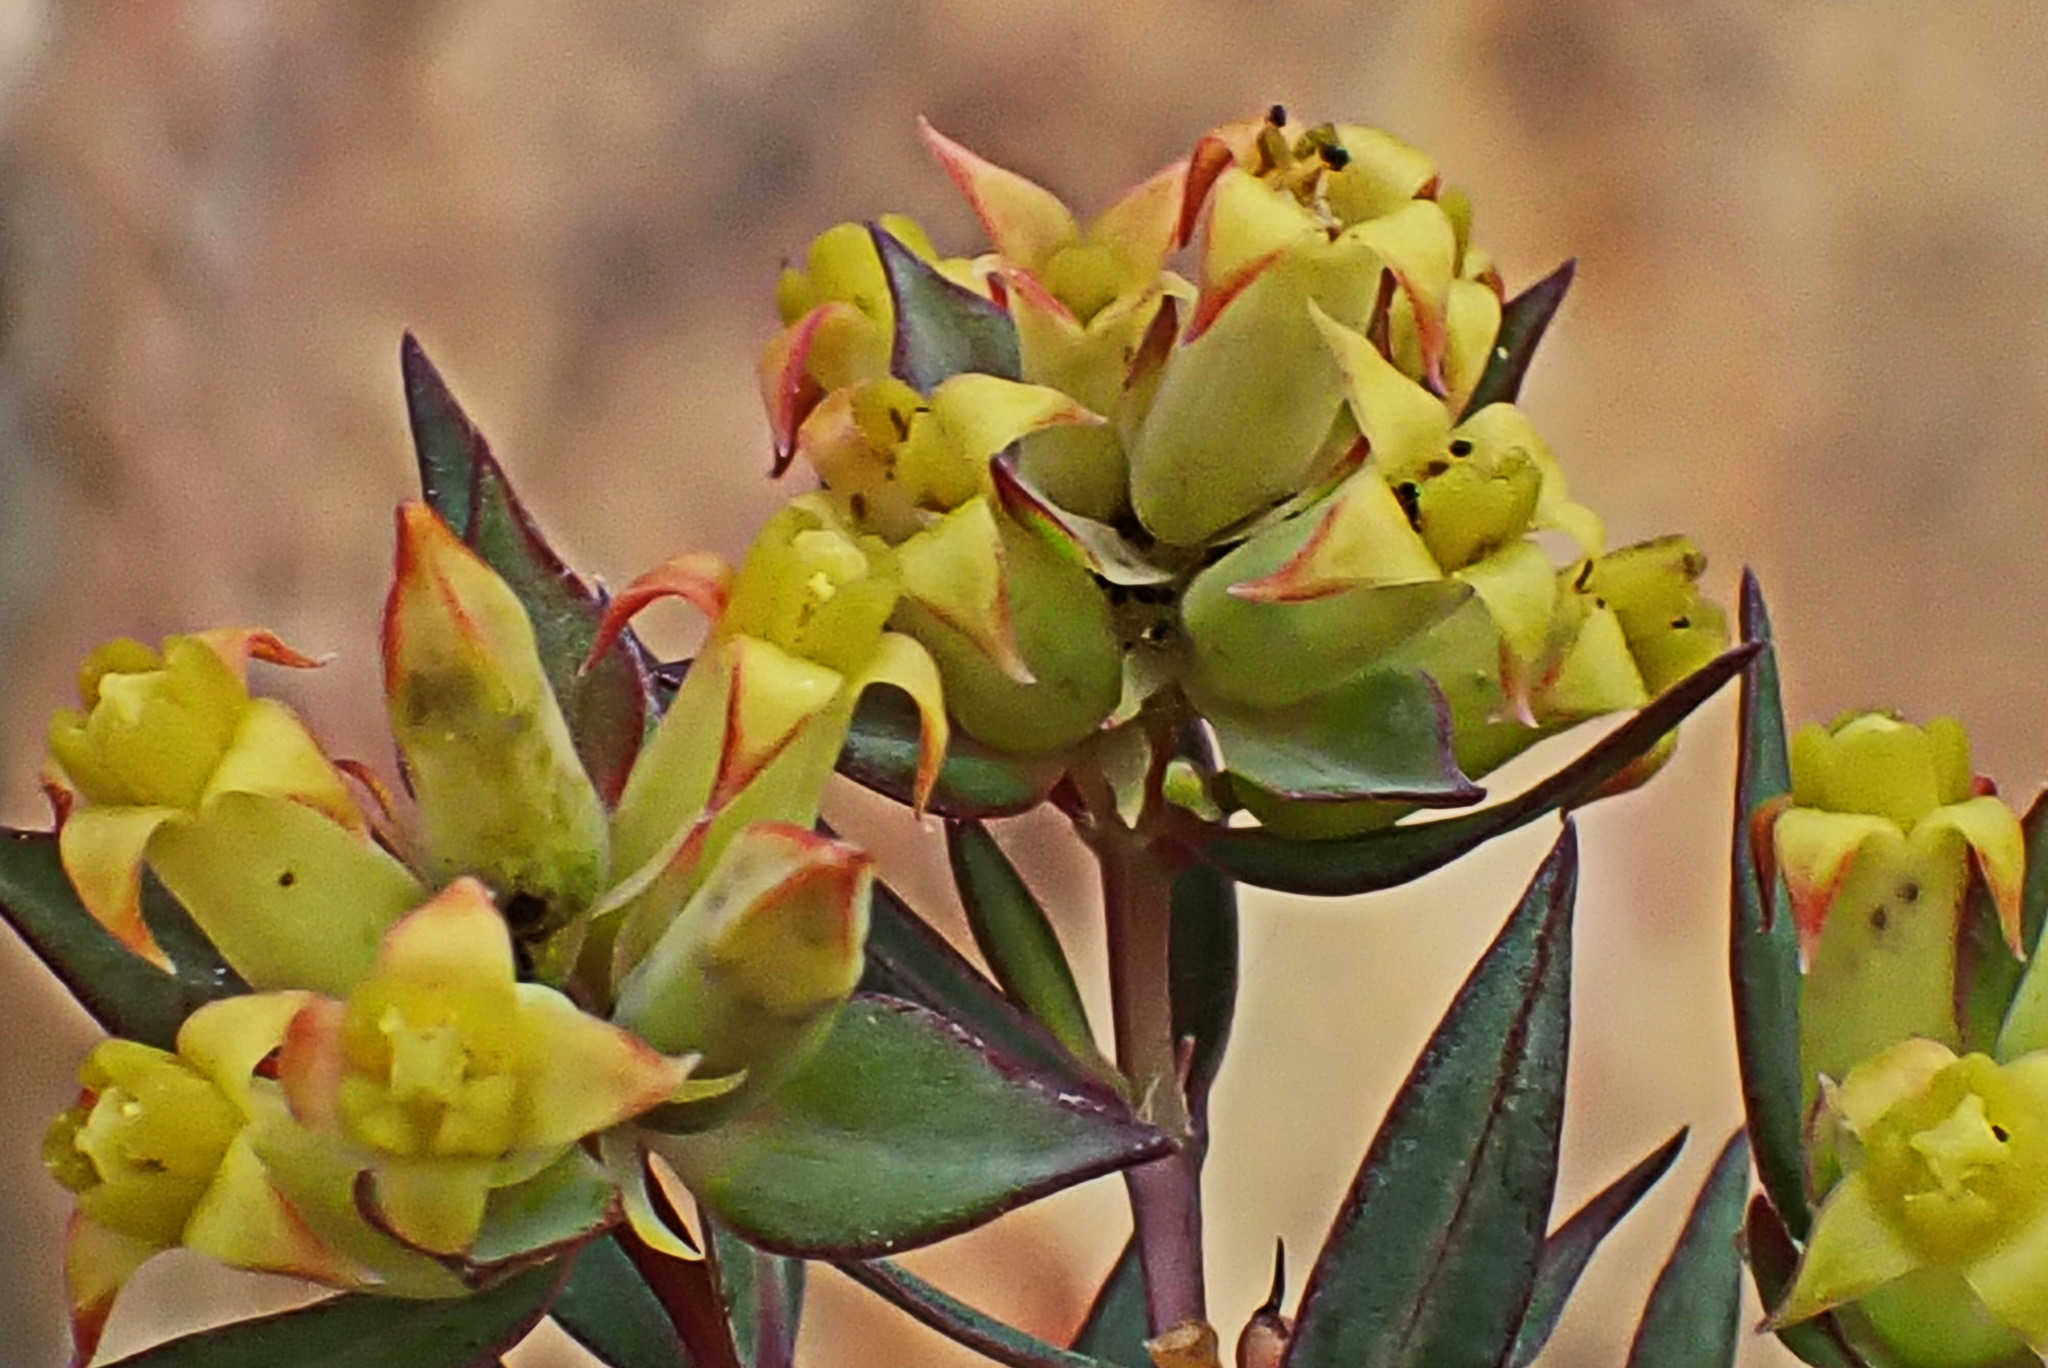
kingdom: Plantae
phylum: Tracheophyta
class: Magnoliopsida
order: Myrtales
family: Penaeaceae
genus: Penaea
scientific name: Penaea acutifolia
